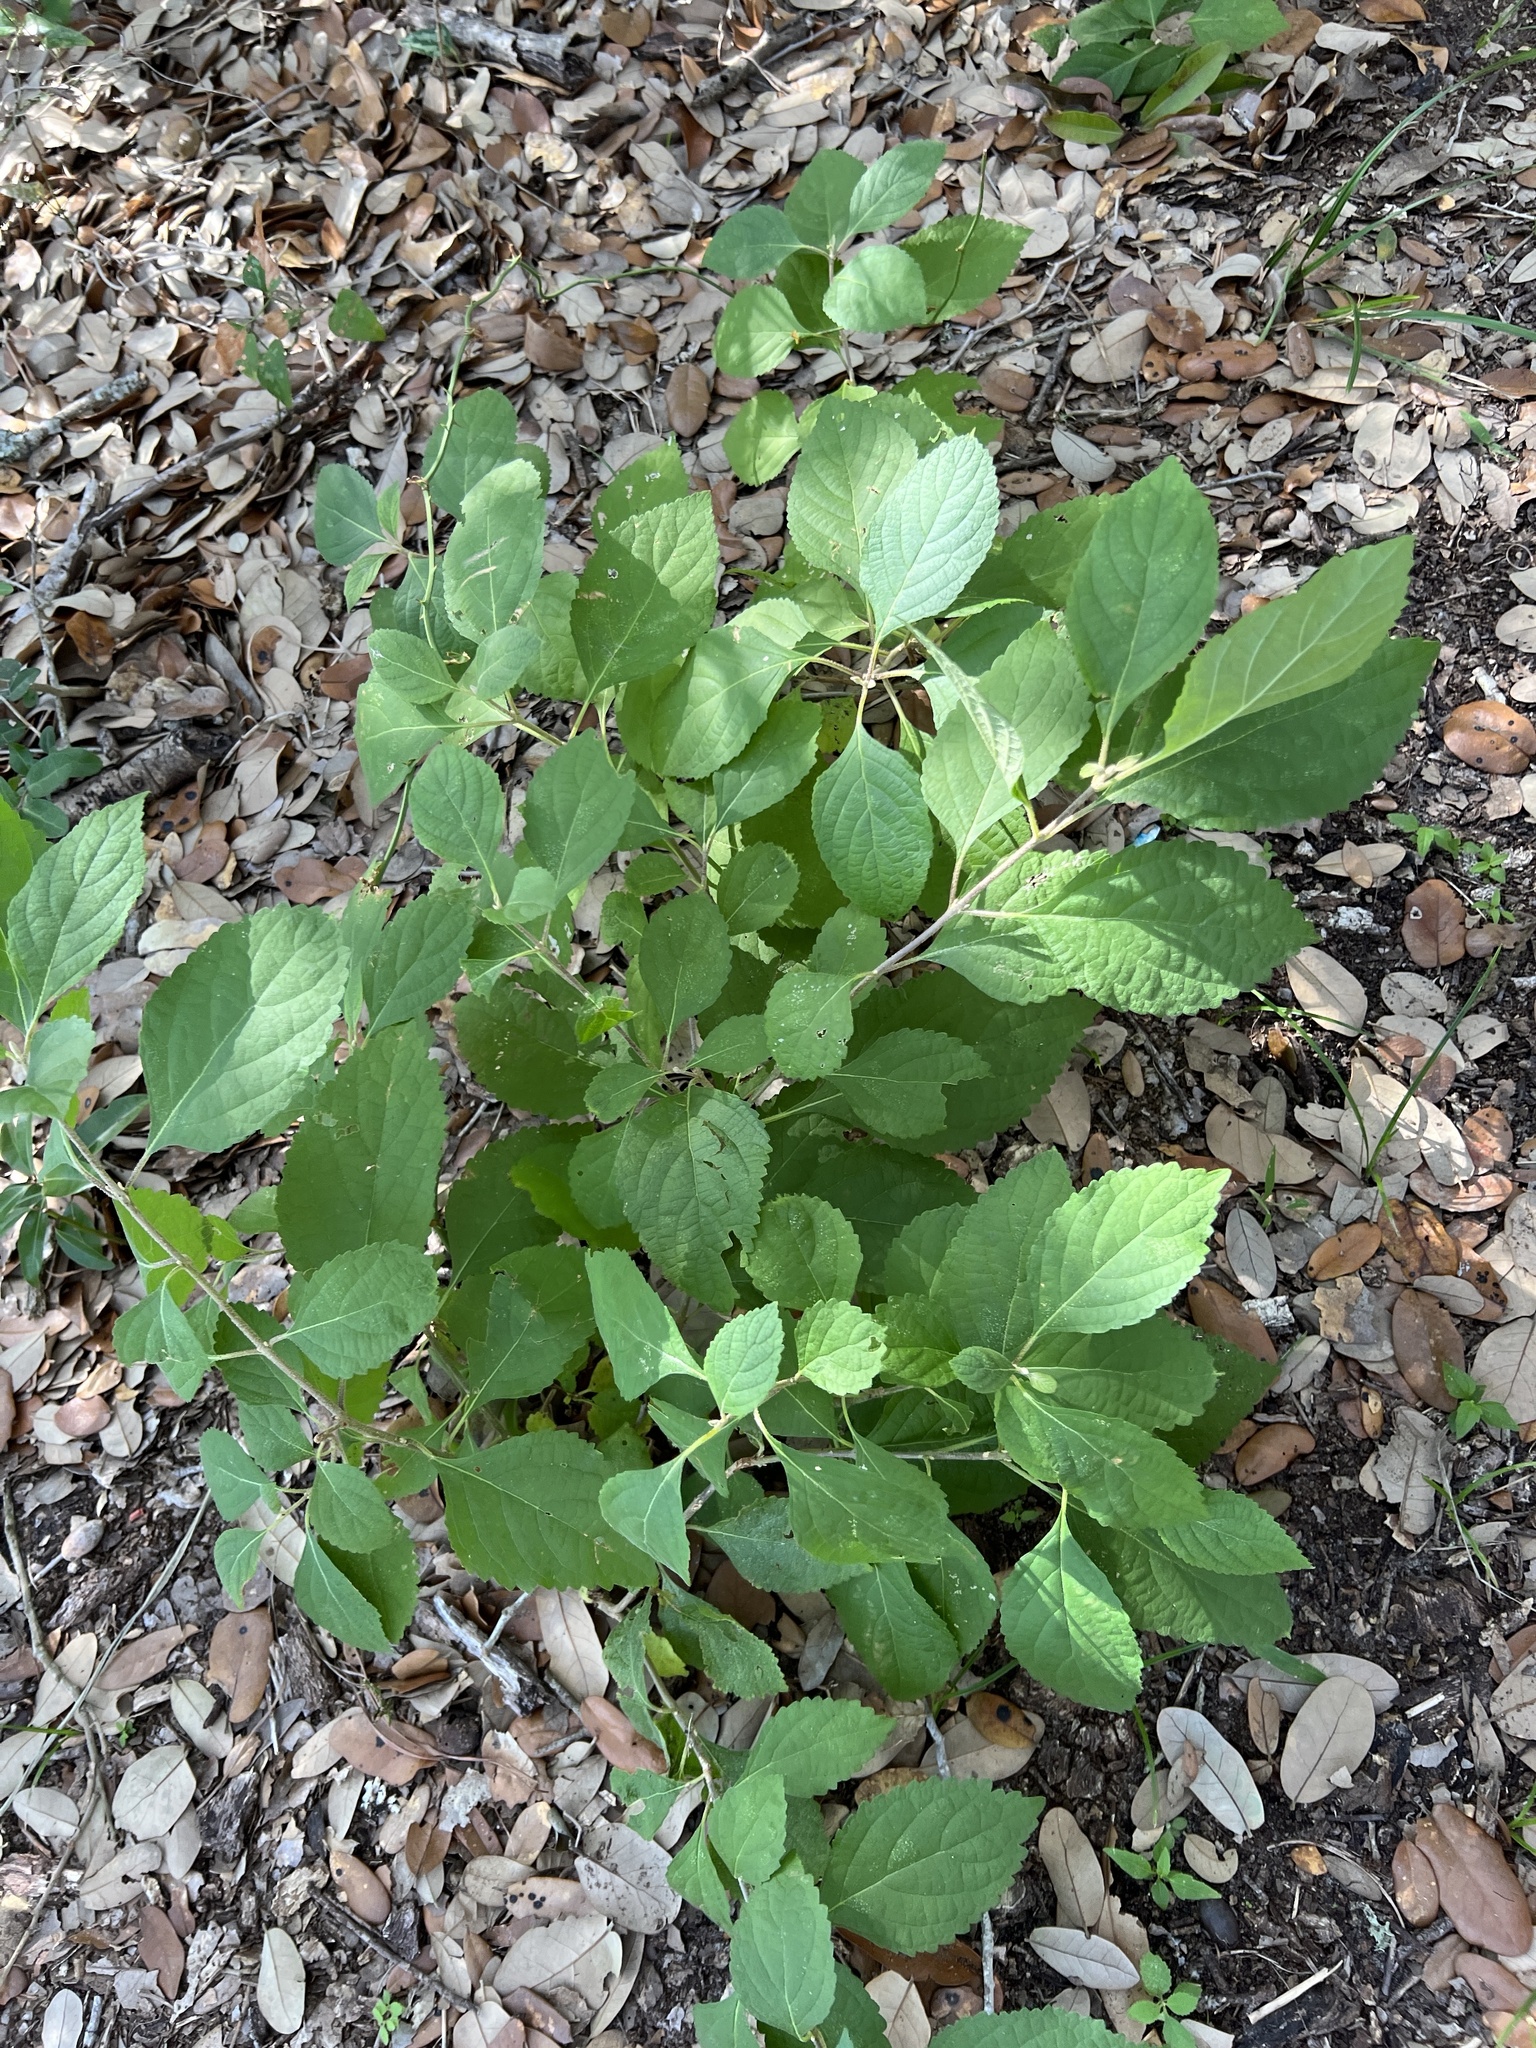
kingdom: Plantae
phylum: Tracheophyta
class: Magnoliopsida
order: Lamiales
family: Lamiaceae
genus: Callicarpa
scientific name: Callicarpa americana
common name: American beautyberry
